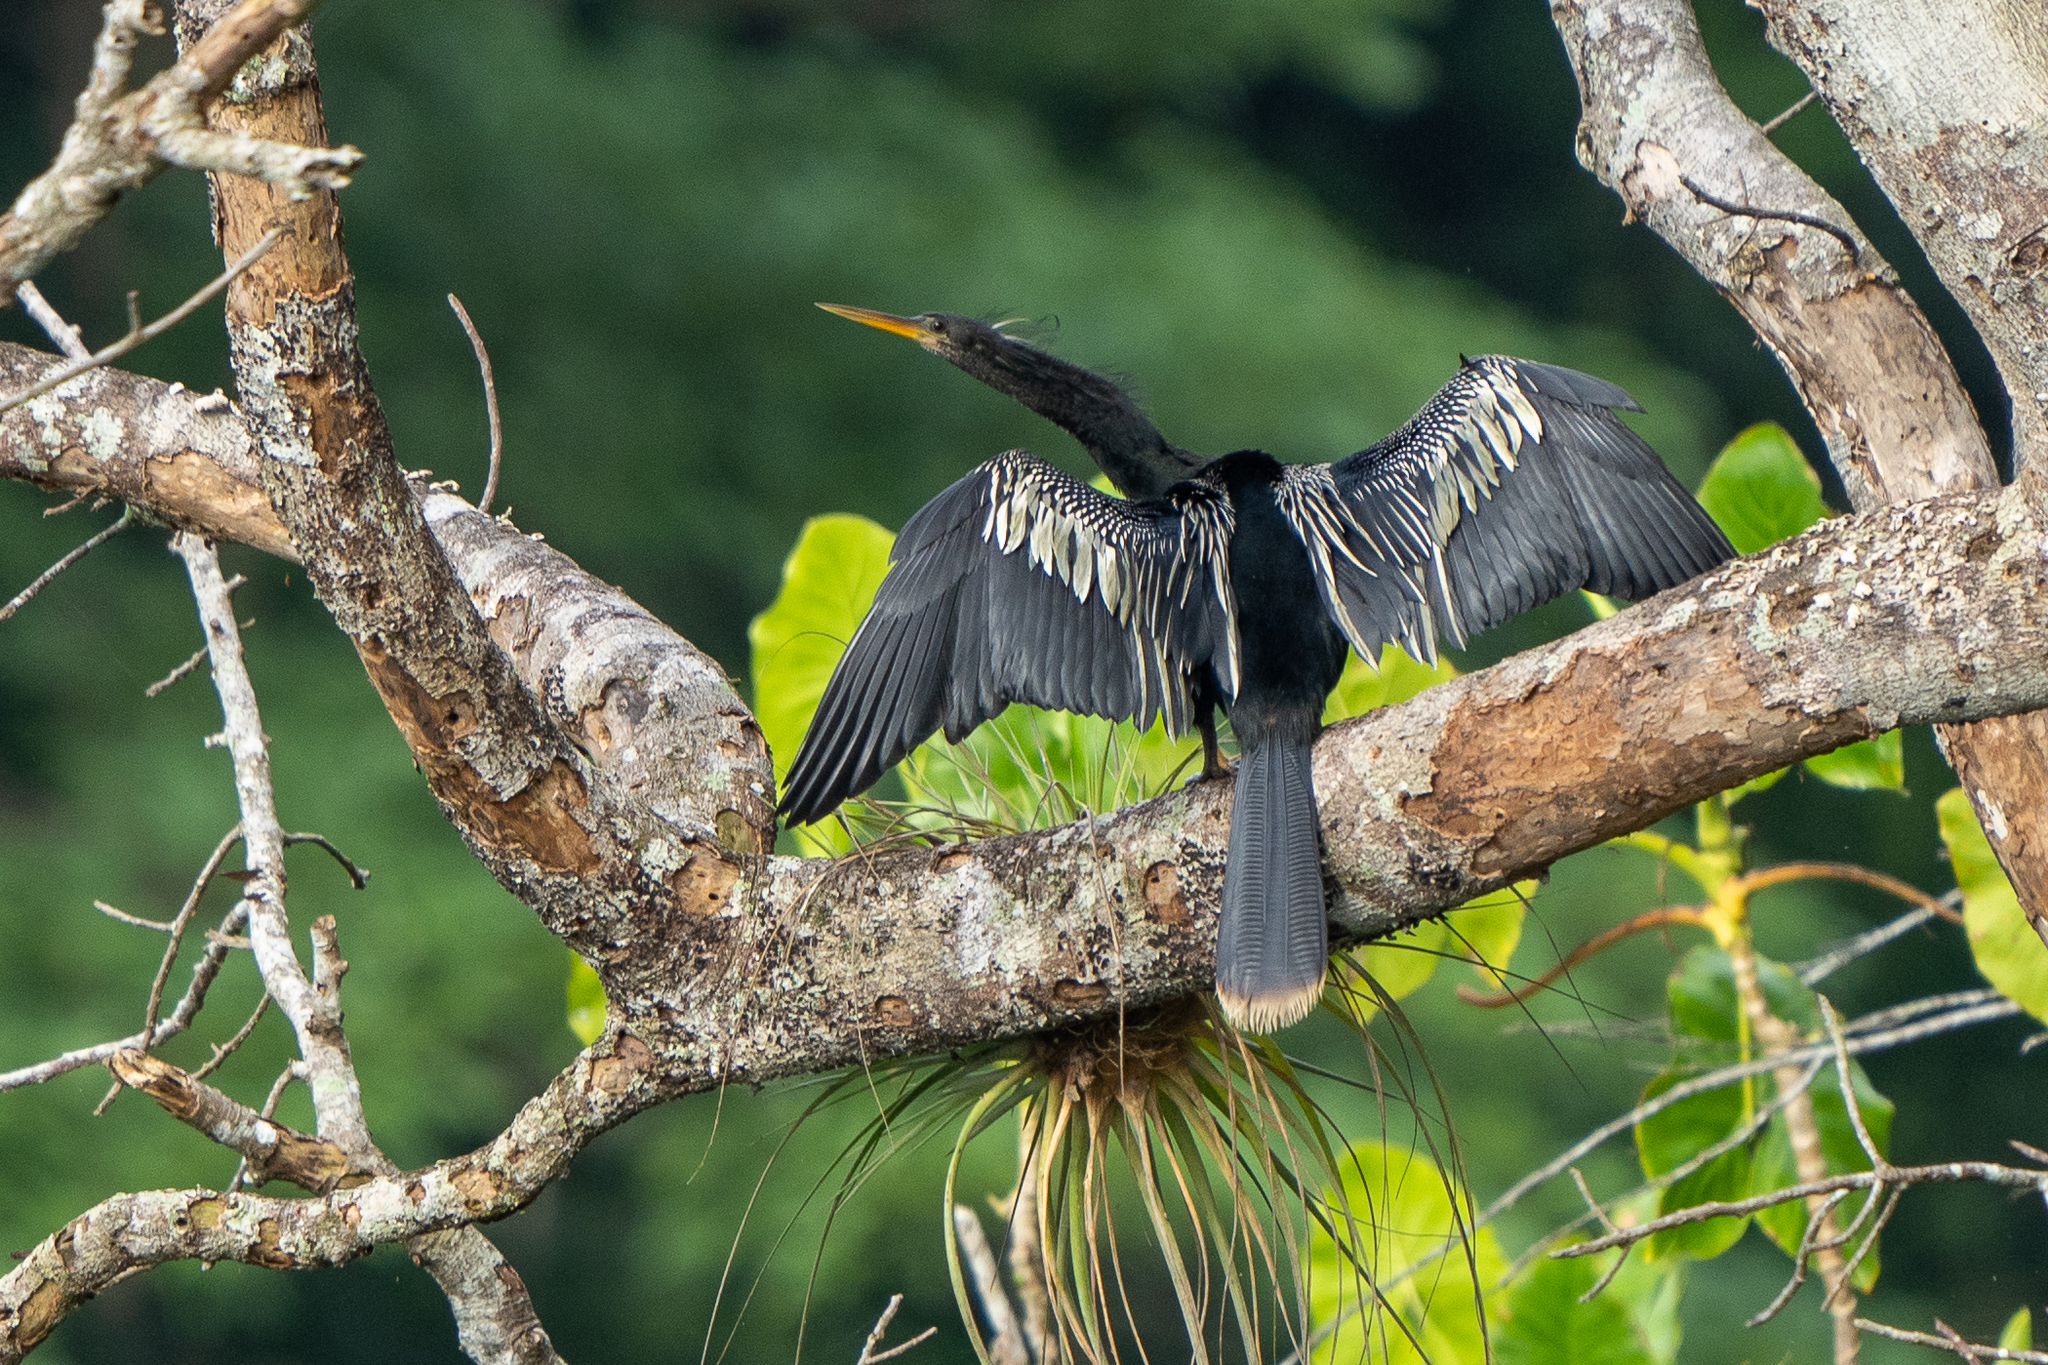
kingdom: Animalia
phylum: Chordata
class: Aves
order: Suliformes
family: Anhingidae
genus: Anhinga
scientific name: Anhinga anhinga
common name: Anhinga
